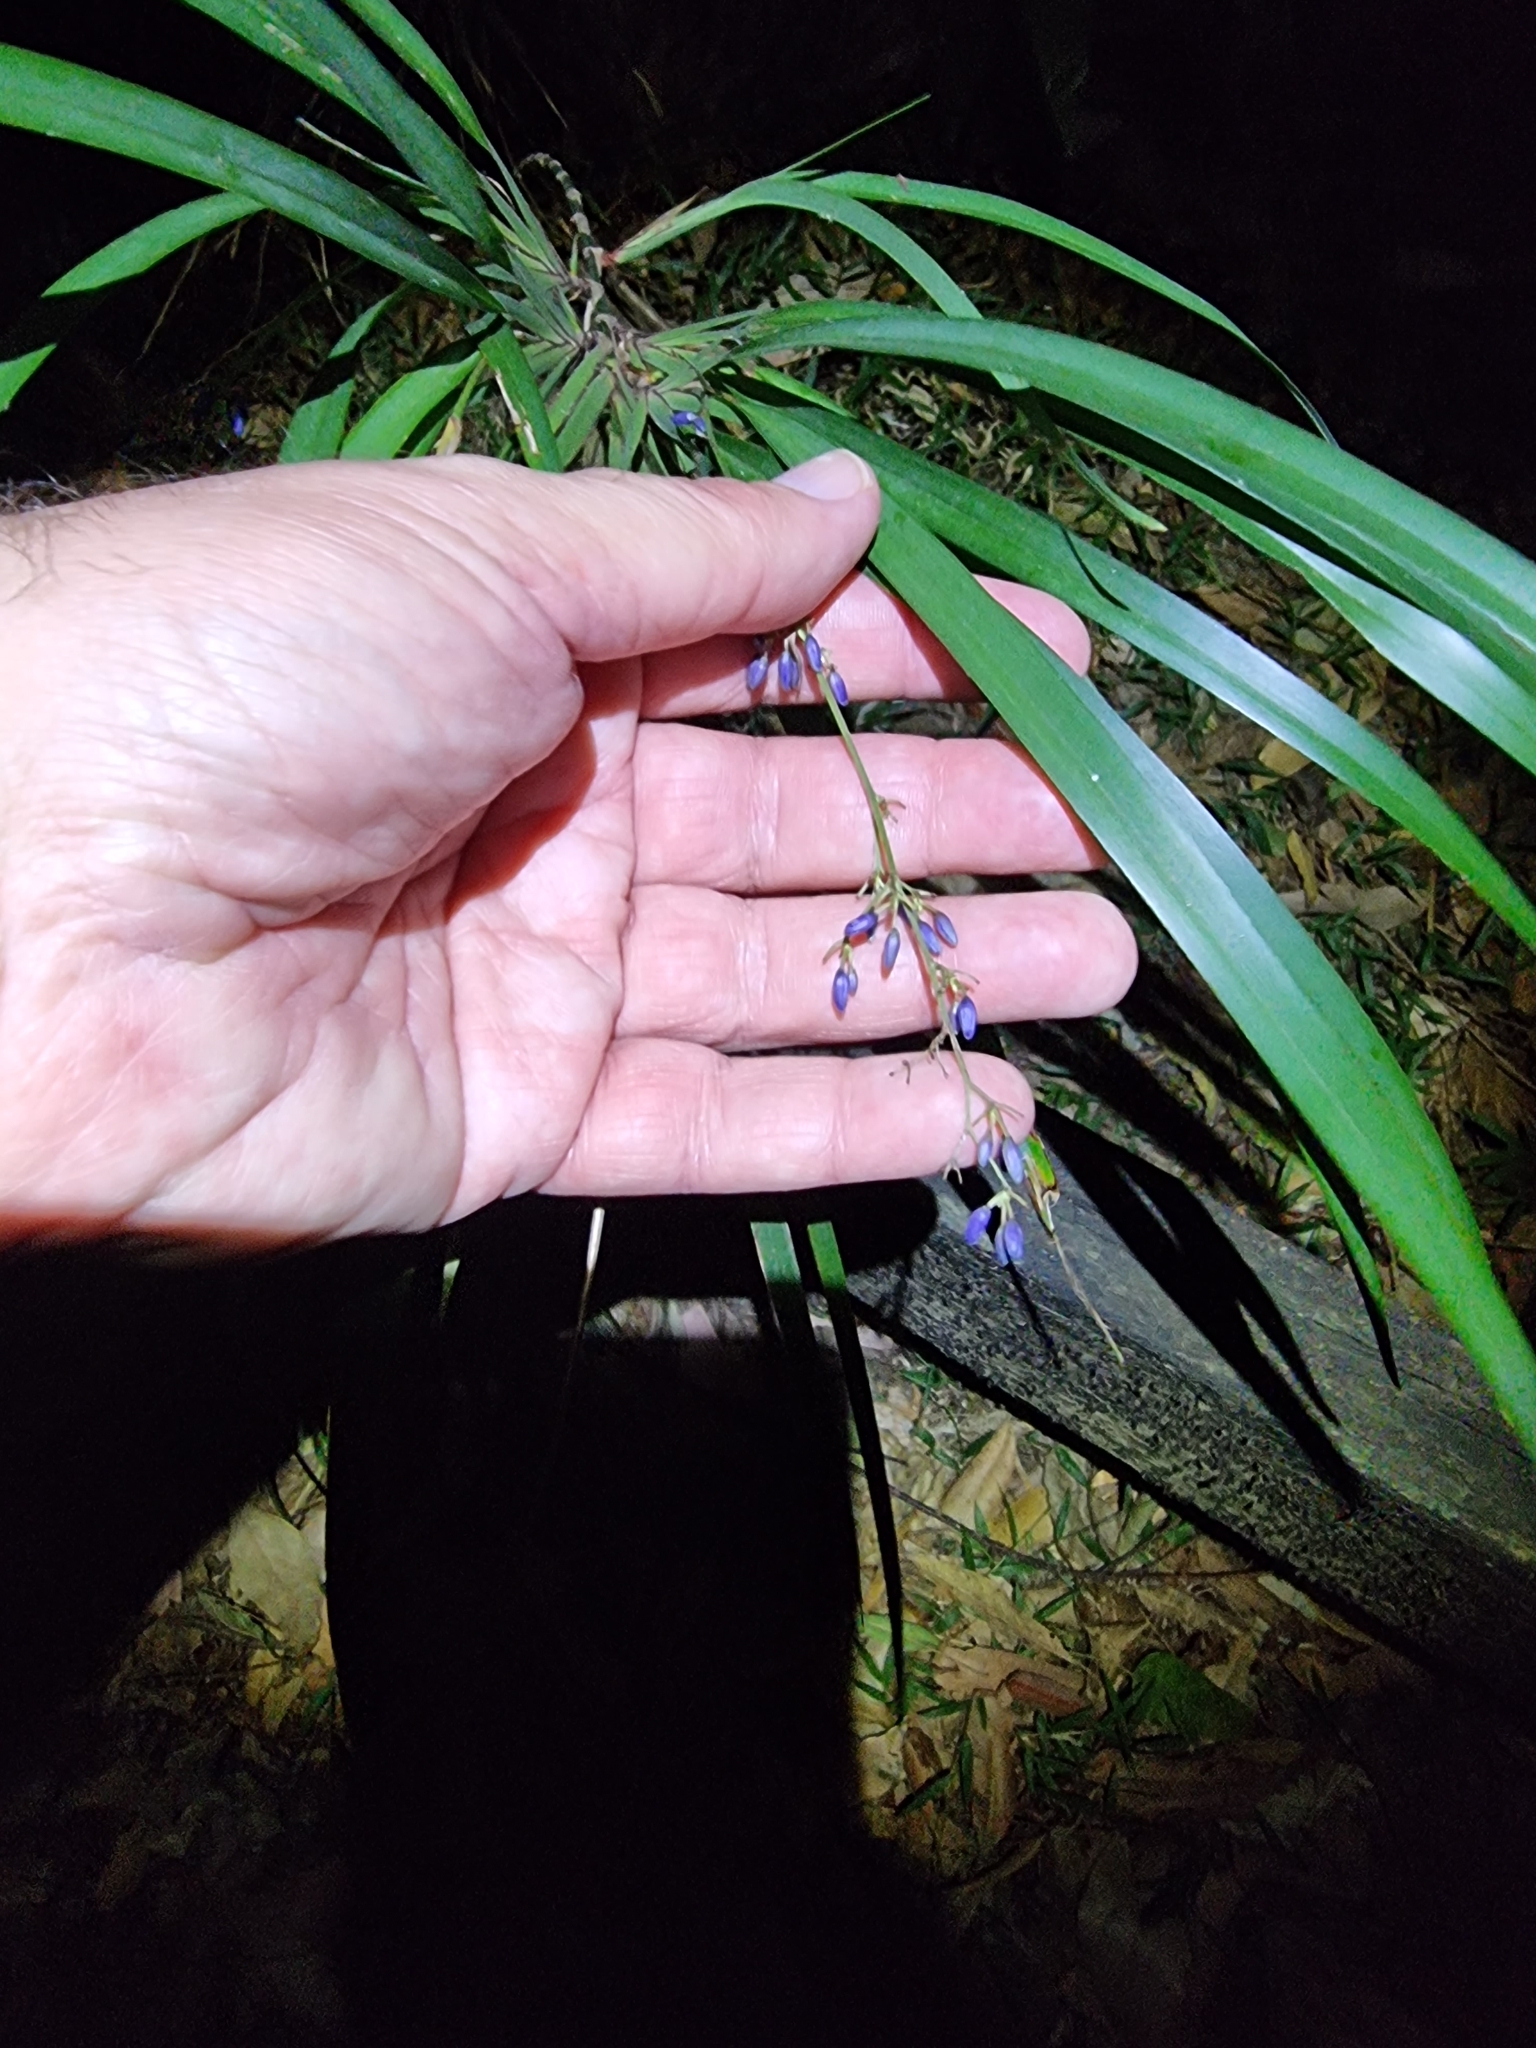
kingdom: Plantae
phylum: Tracheophyta
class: Liliopsida
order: Asparagales
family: Asphodelaceae
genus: Dianella
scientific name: Dianella caerulea
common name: Blue flax-lily
